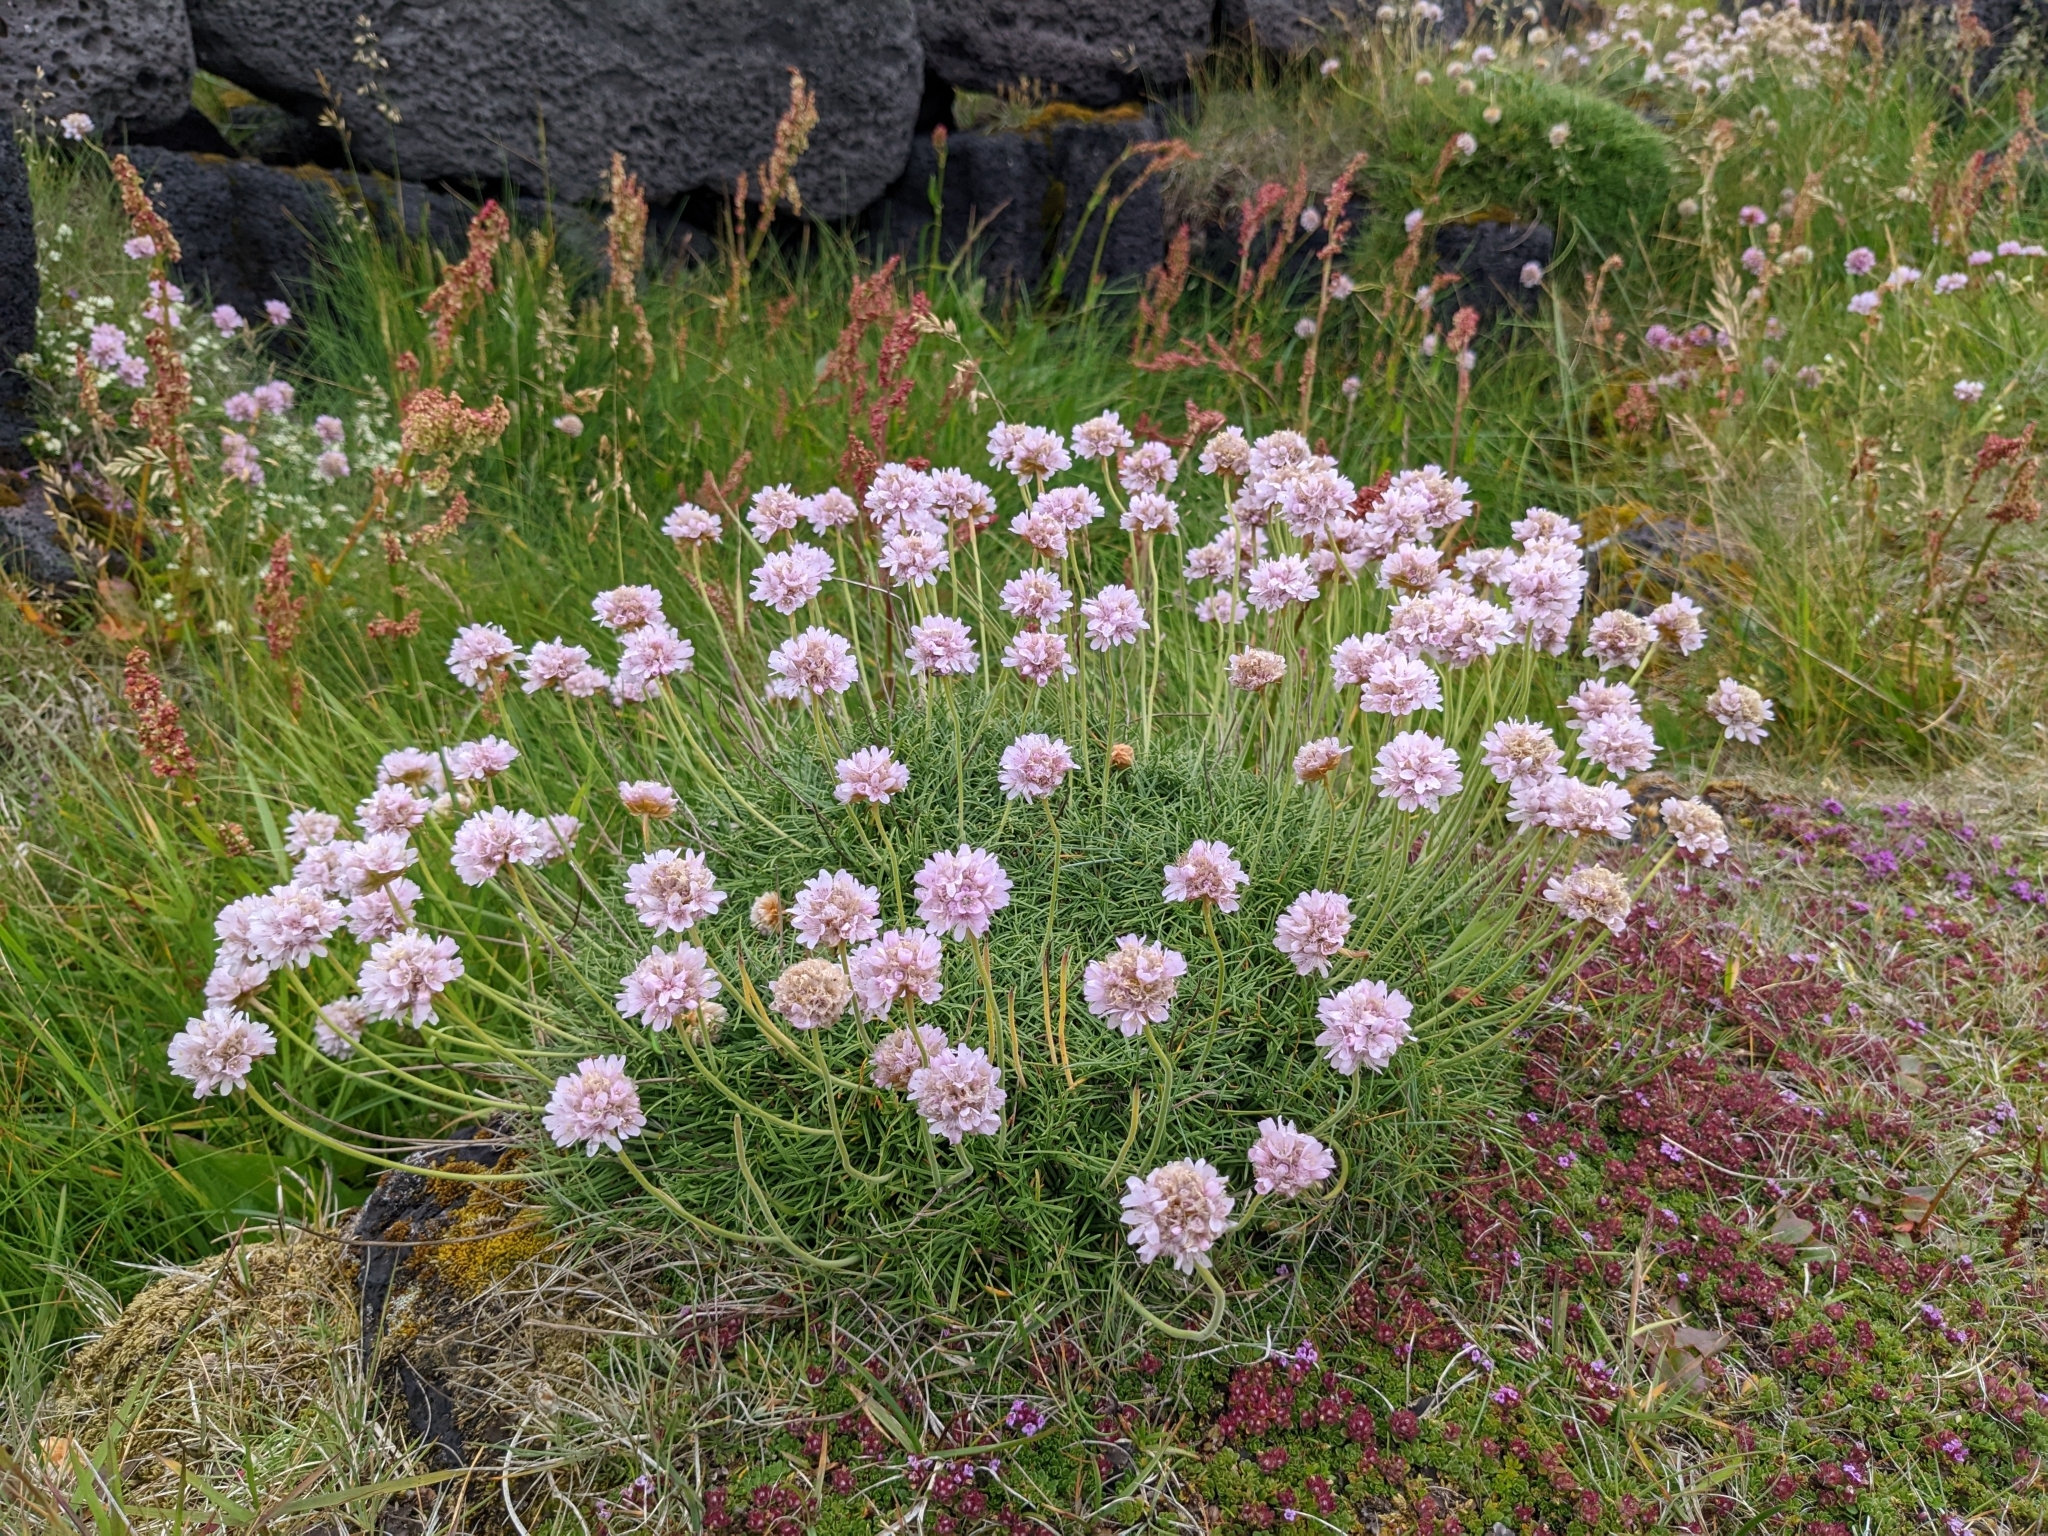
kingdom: Plantae
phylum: Tracheophyta
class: Magnoliopsida
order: Caryophyllales
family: Plumbaginaceae
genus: Armeria
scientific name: Armeria maritima
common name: Thrift
